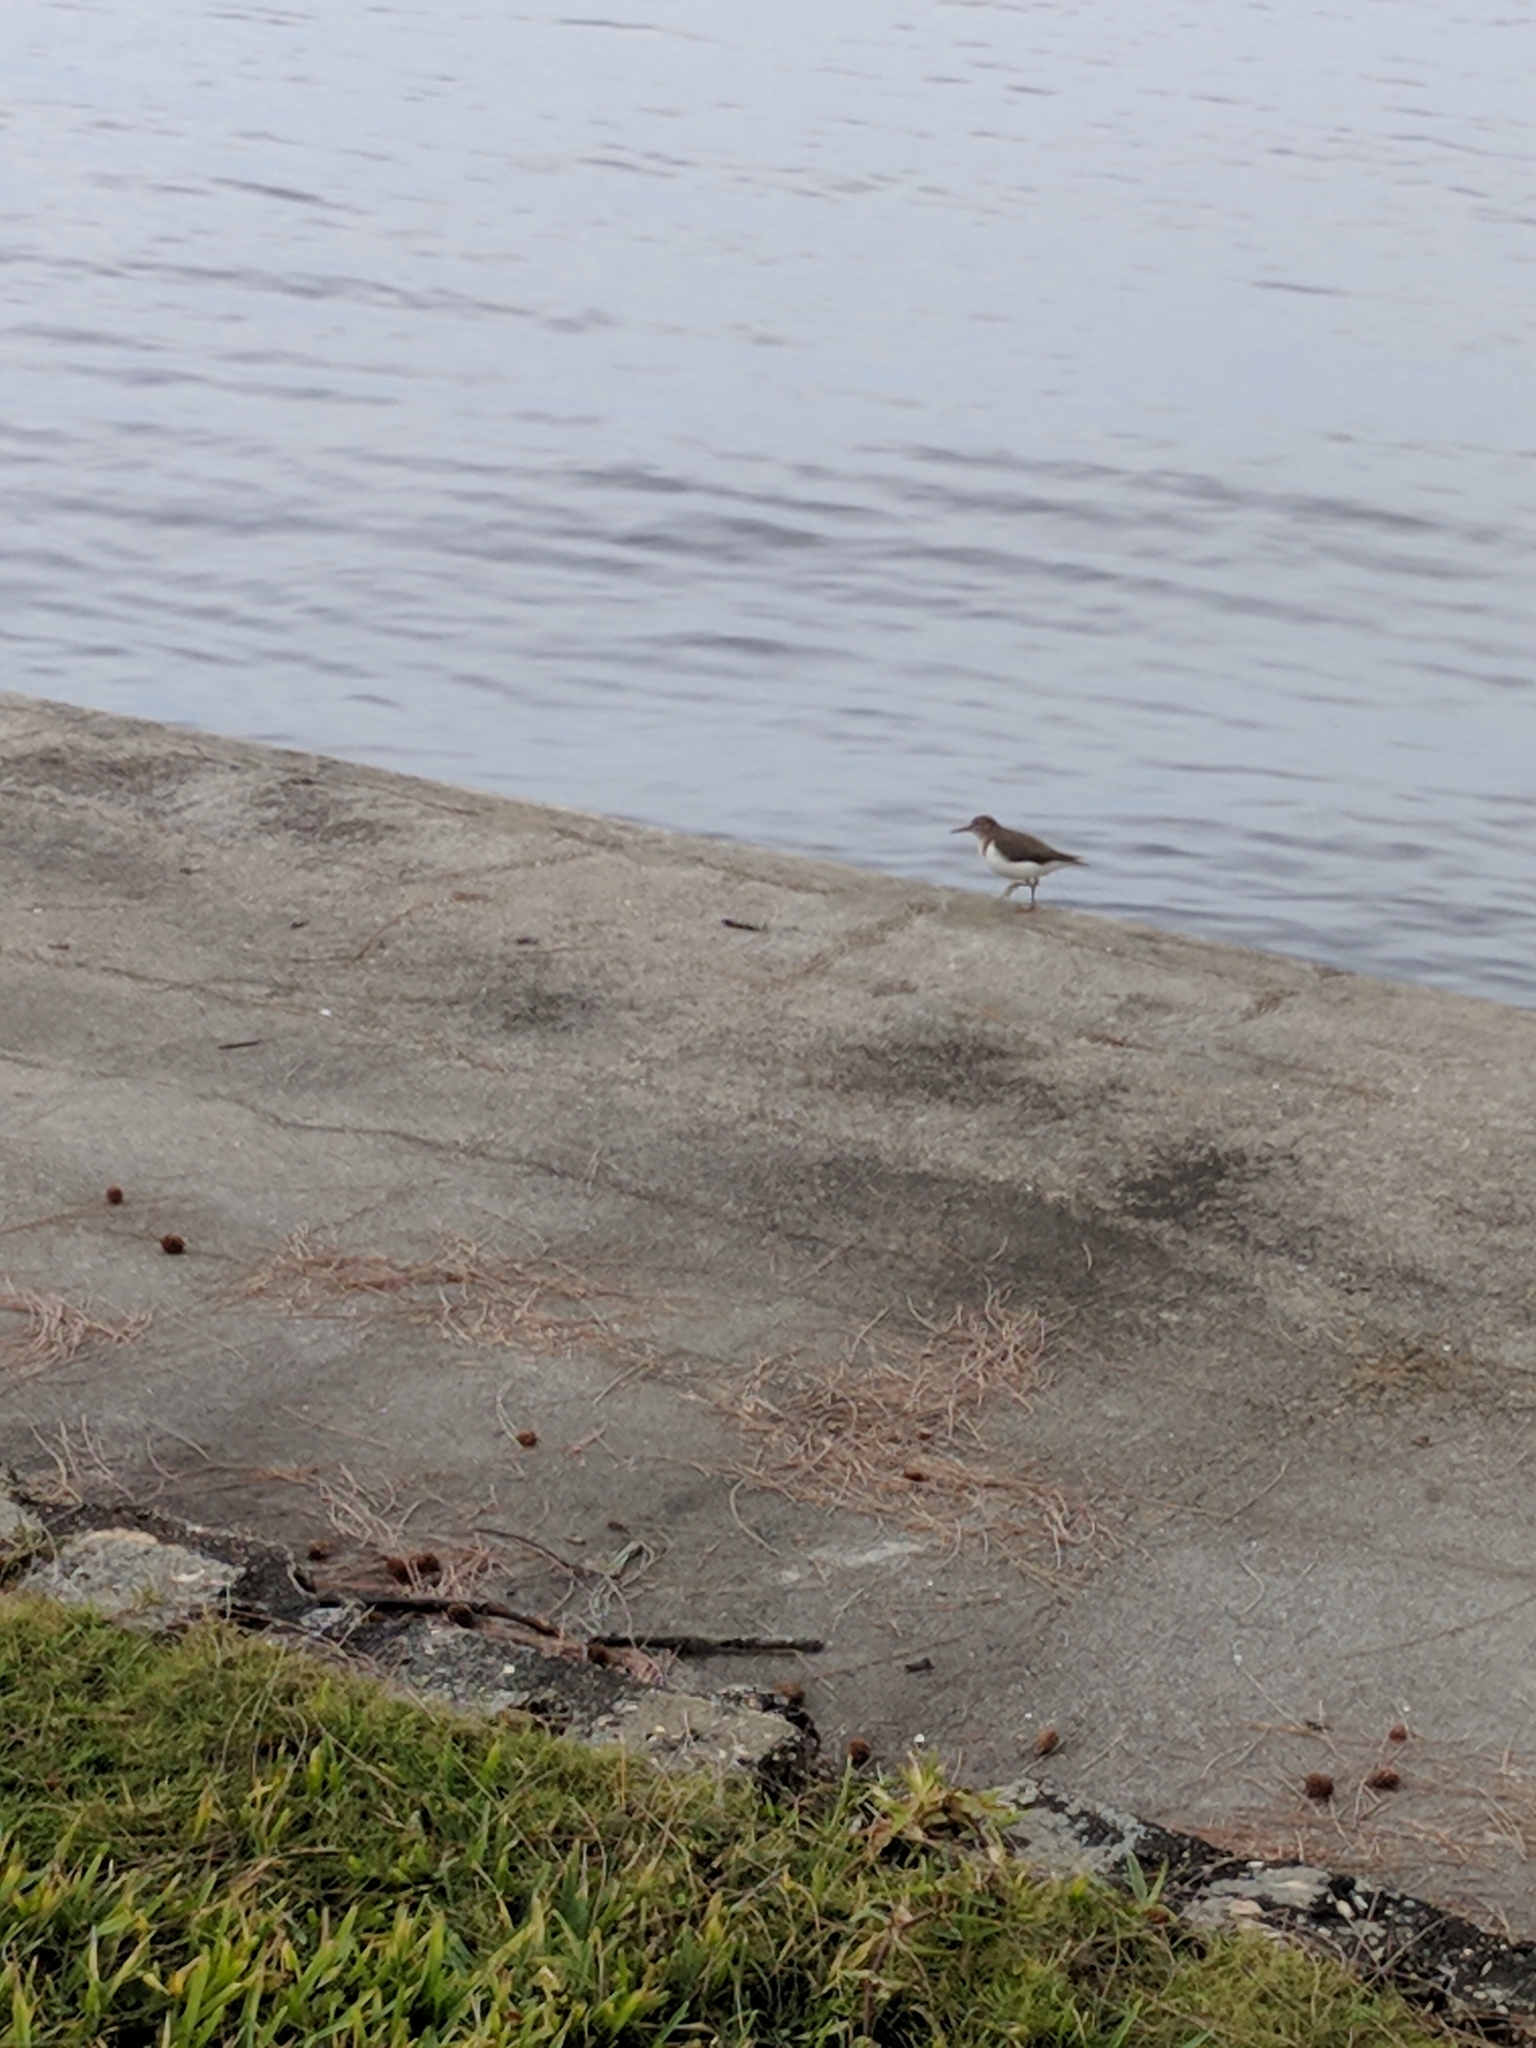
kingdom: Animalia
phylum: Chordata
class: Aves
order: Charadriiformes
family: Scolopacidae
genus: Actitis
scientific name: Actitis macularius
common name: Spotted sandpiper
